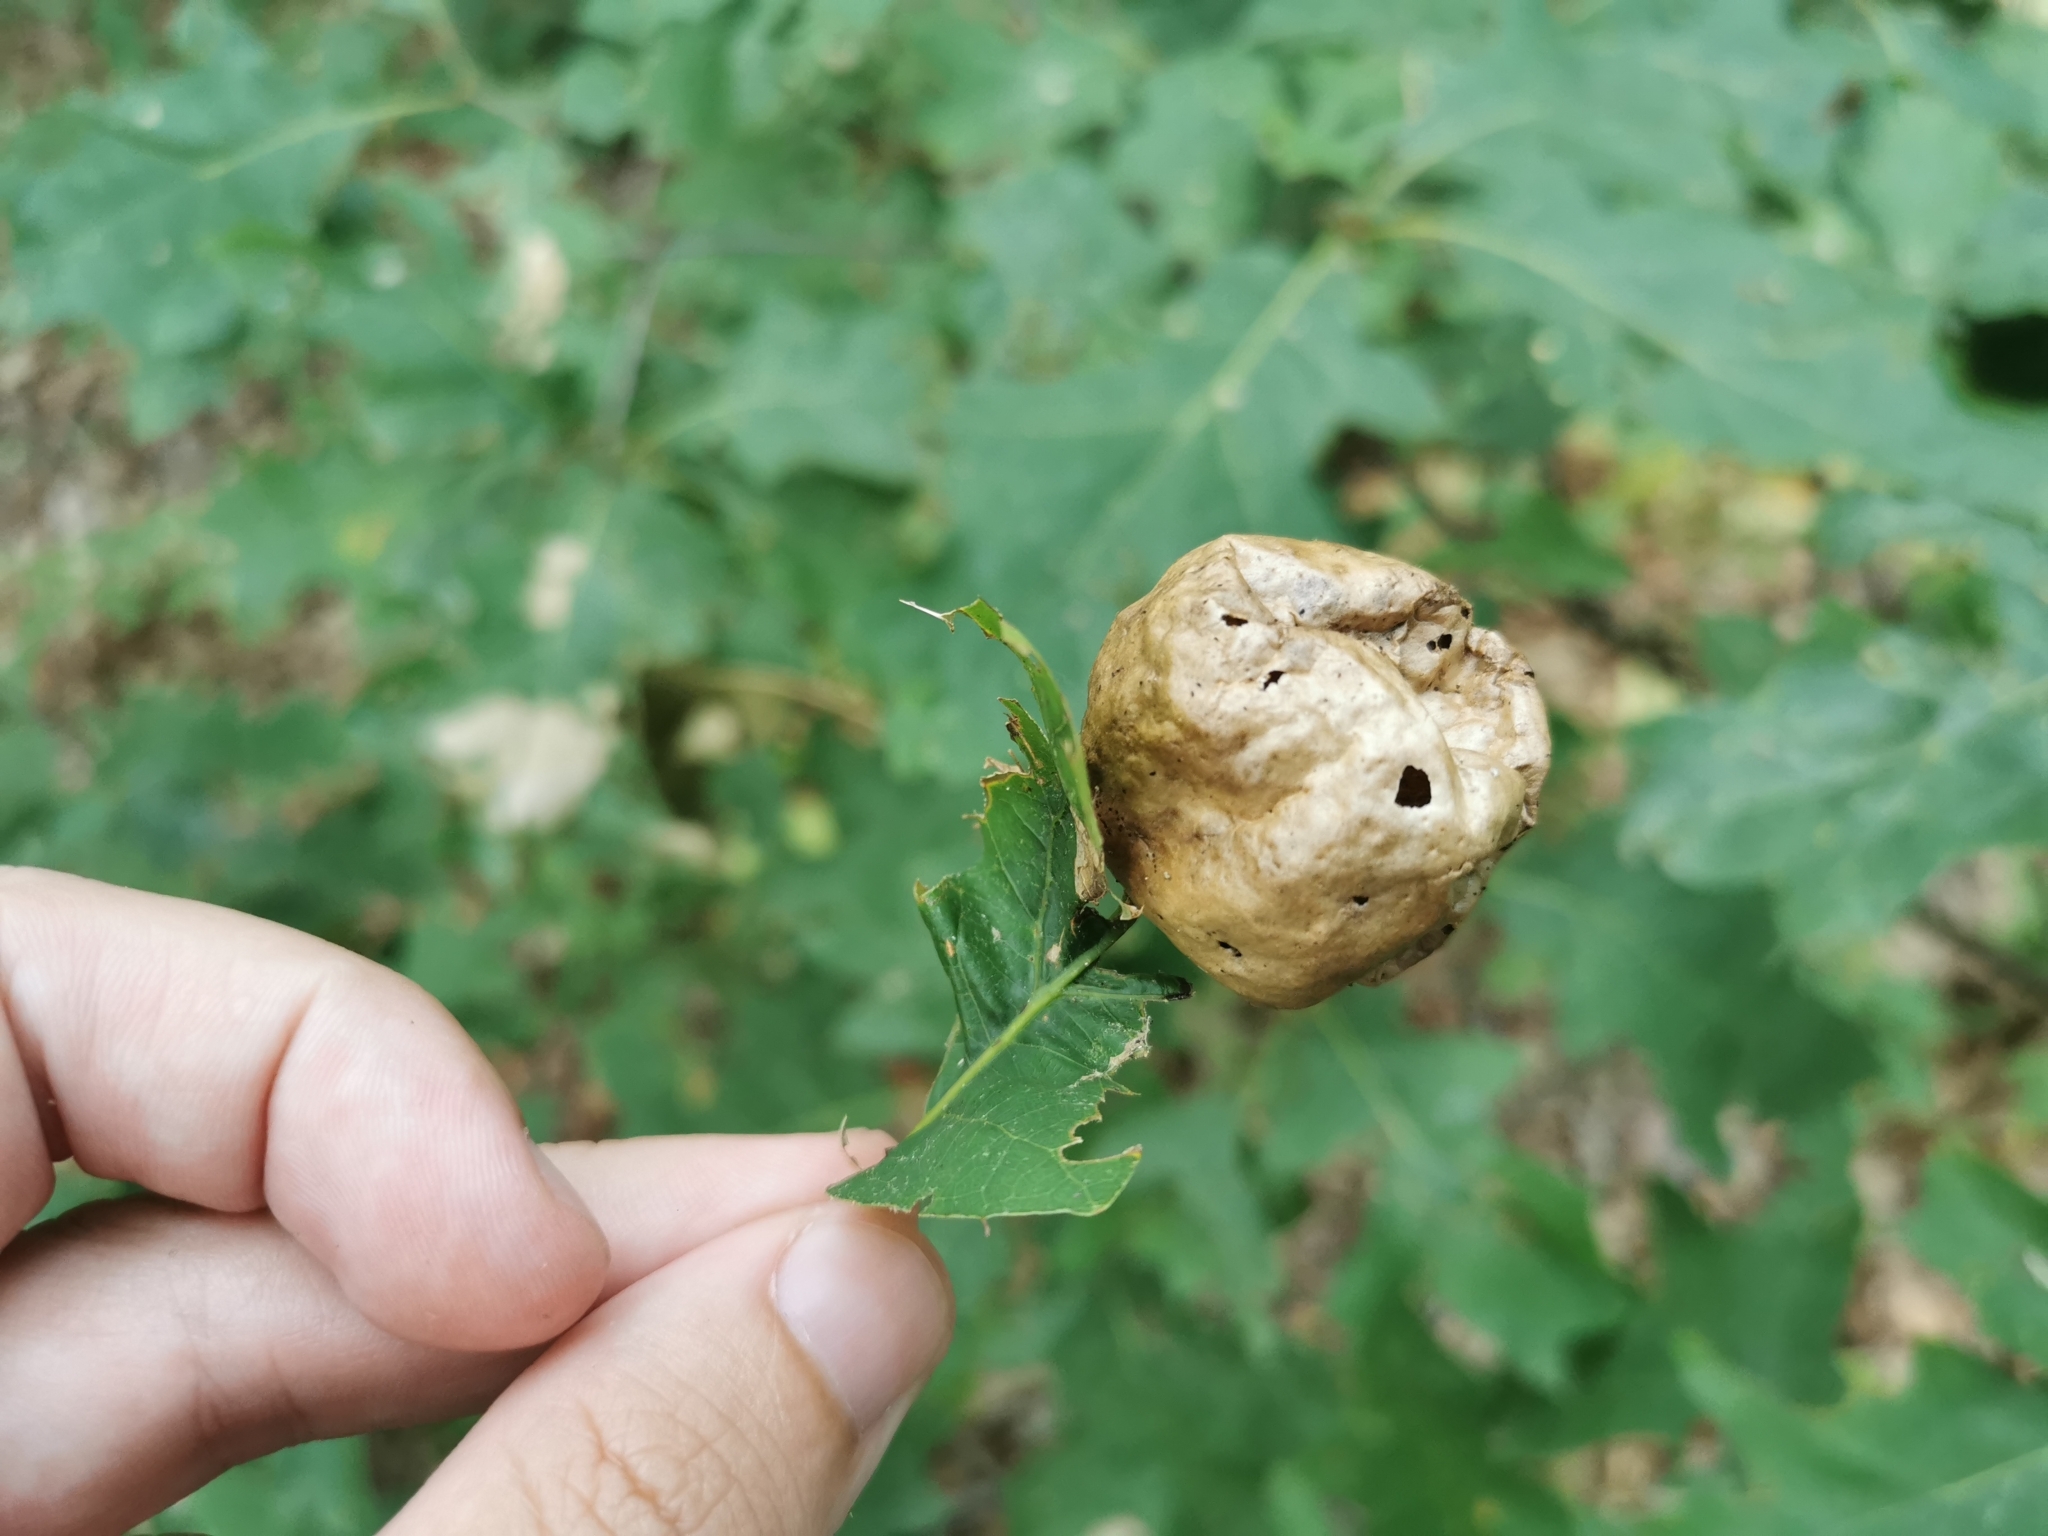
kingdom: Animalia
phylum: Arthropoda
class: Insecta
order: Hymenoptera
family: Cynipidae
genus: Amphibolips
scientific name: Amphibolips
